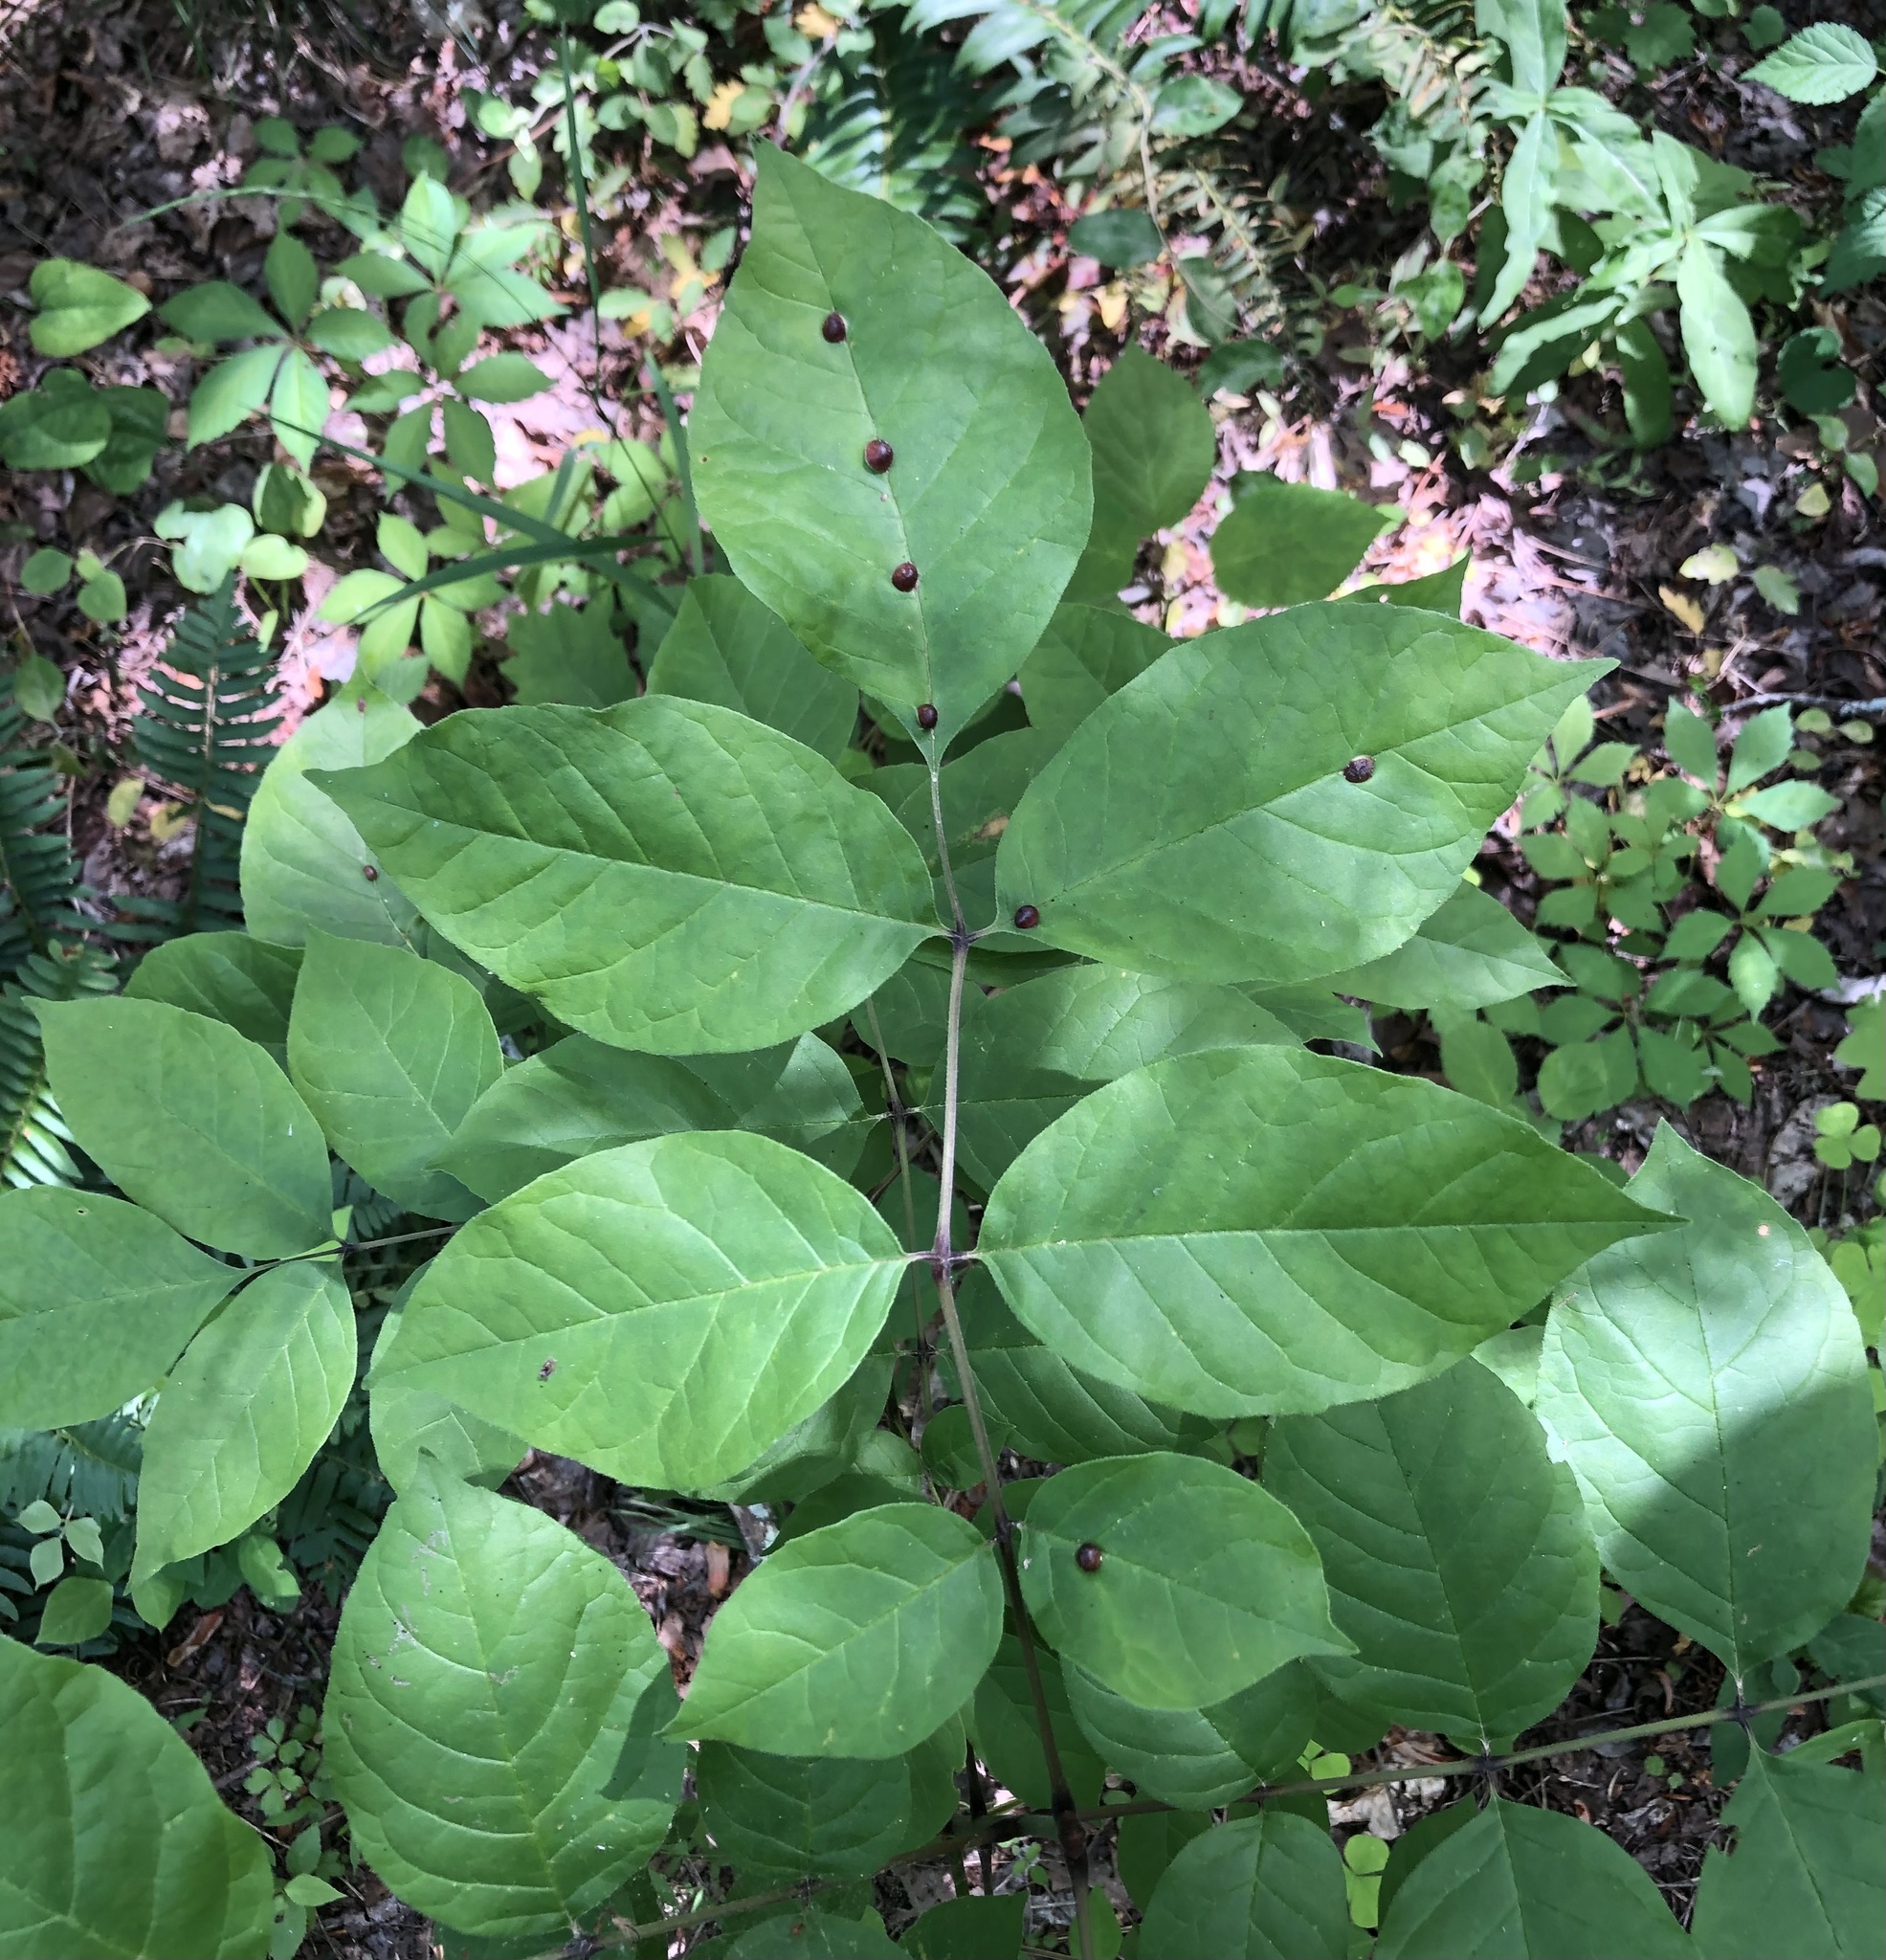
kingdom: Animalia
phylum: Arthropoda
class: Insecta
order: Diptera
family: Cecidomyiidae
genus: Dasineura
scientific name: Dasineura pellex
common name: Ash bullet gall midge
